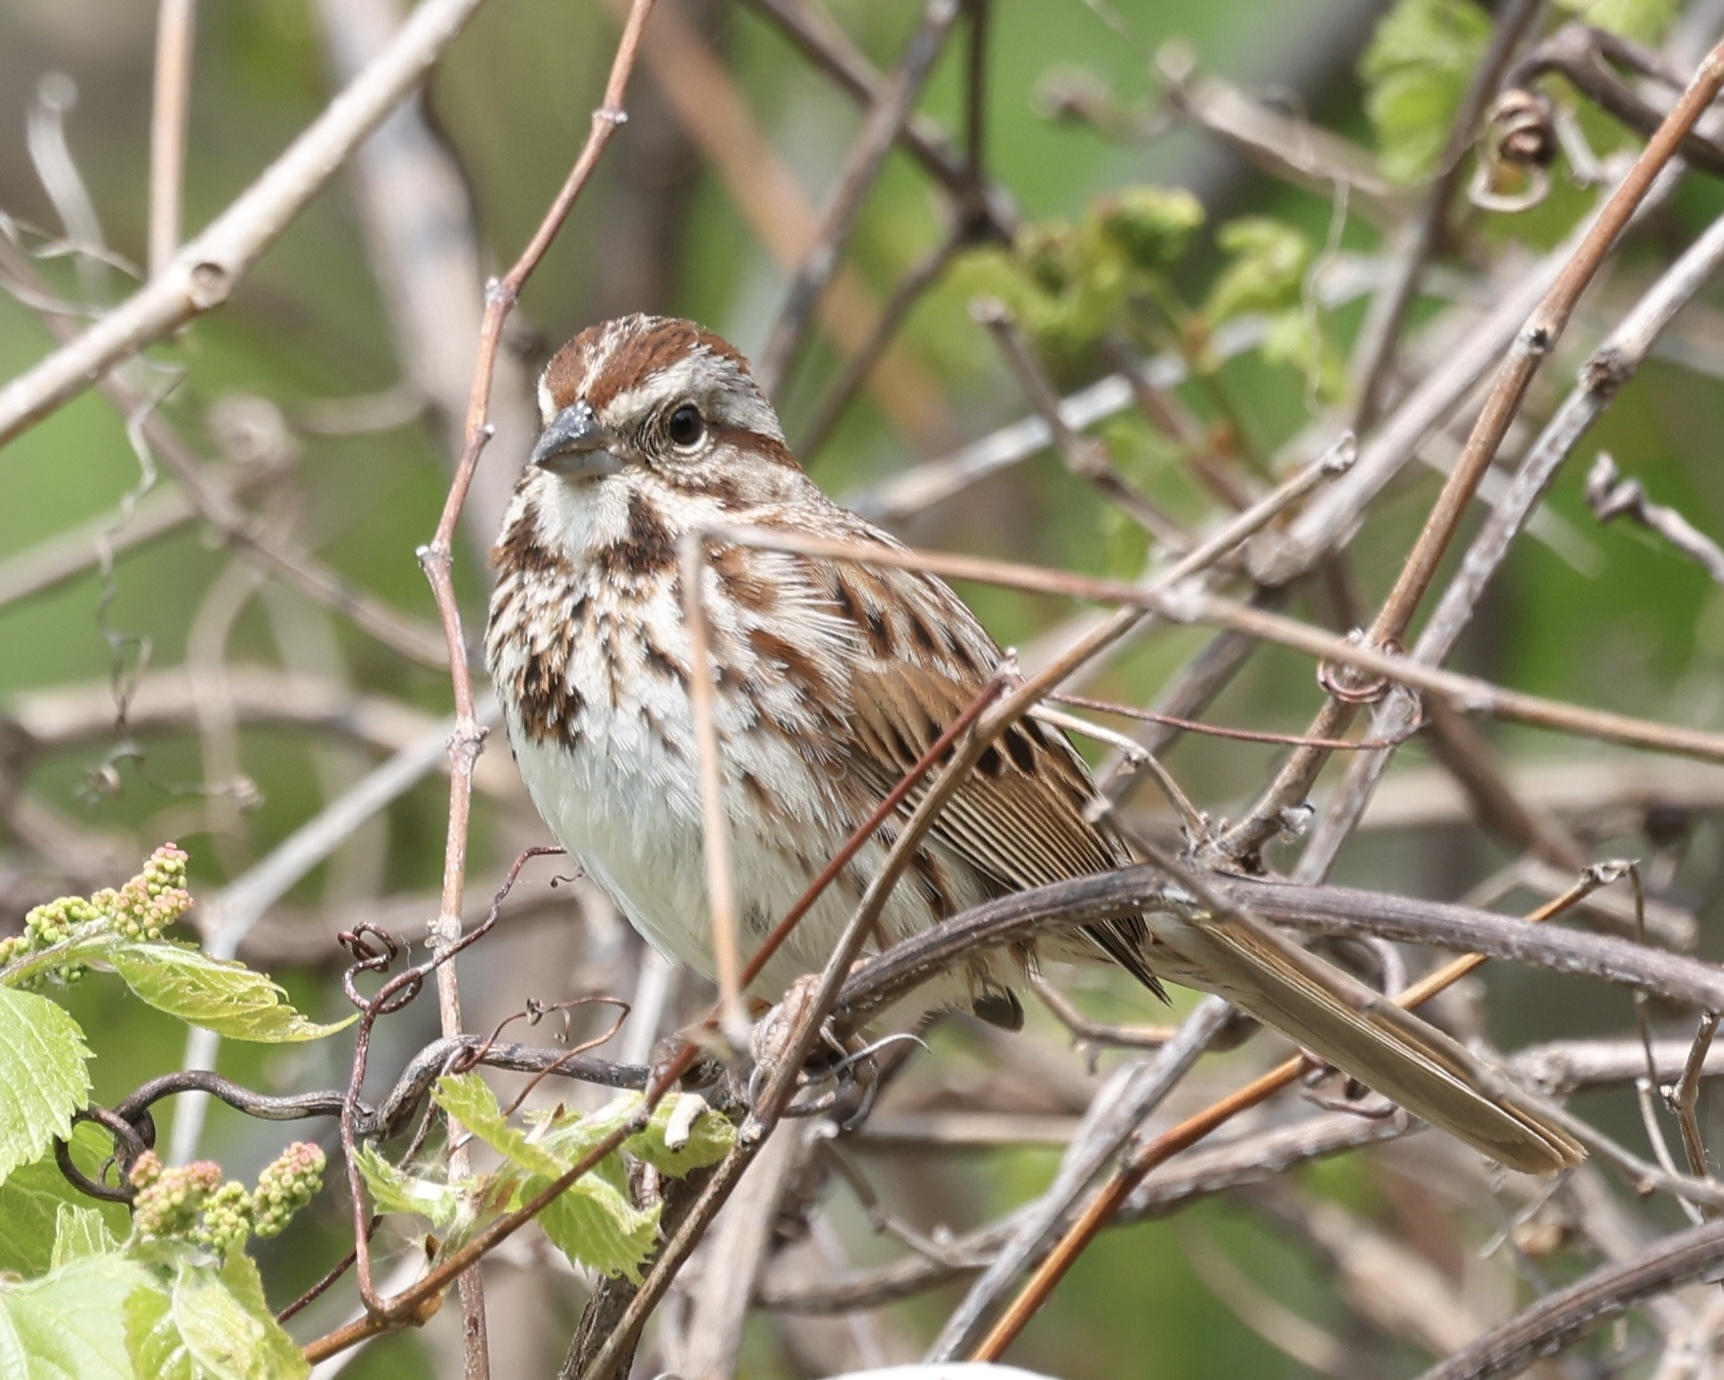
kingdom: Animalia
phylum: Chordata
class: Aves
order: Passeriformes
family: Passerellidae
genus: Melospiza
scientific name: Melospiza melodia
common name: Song sparrow
